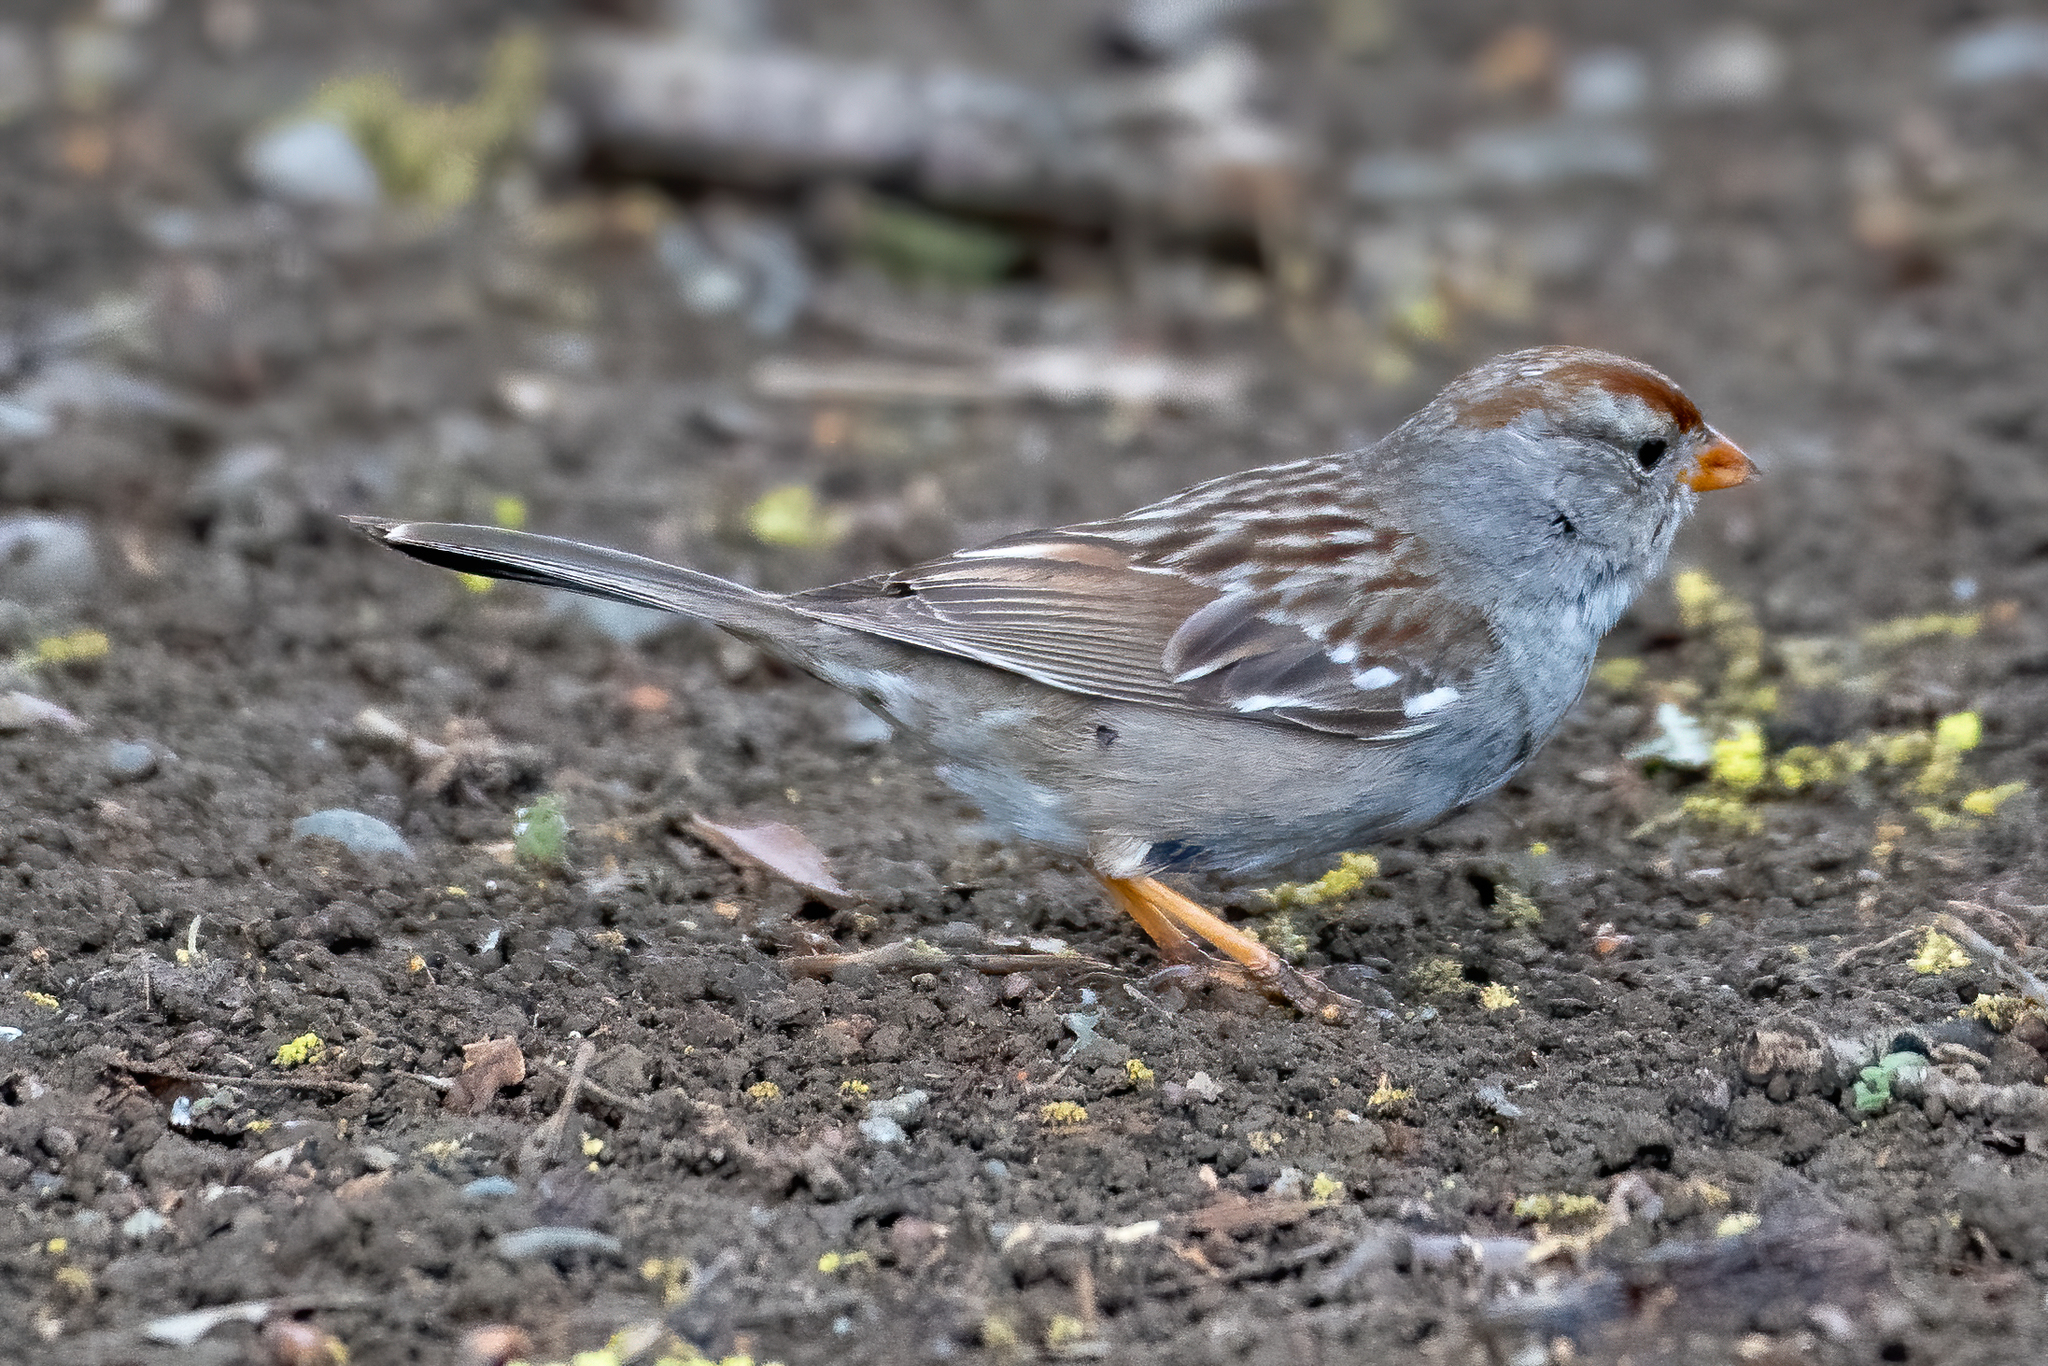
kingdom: Animalia
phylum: Chordata
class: Aves
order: Passeriformes
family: Passerellidae
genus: Zonotrichia
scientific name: Zonotrichia leucophrys
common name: White-crowned sparrow
